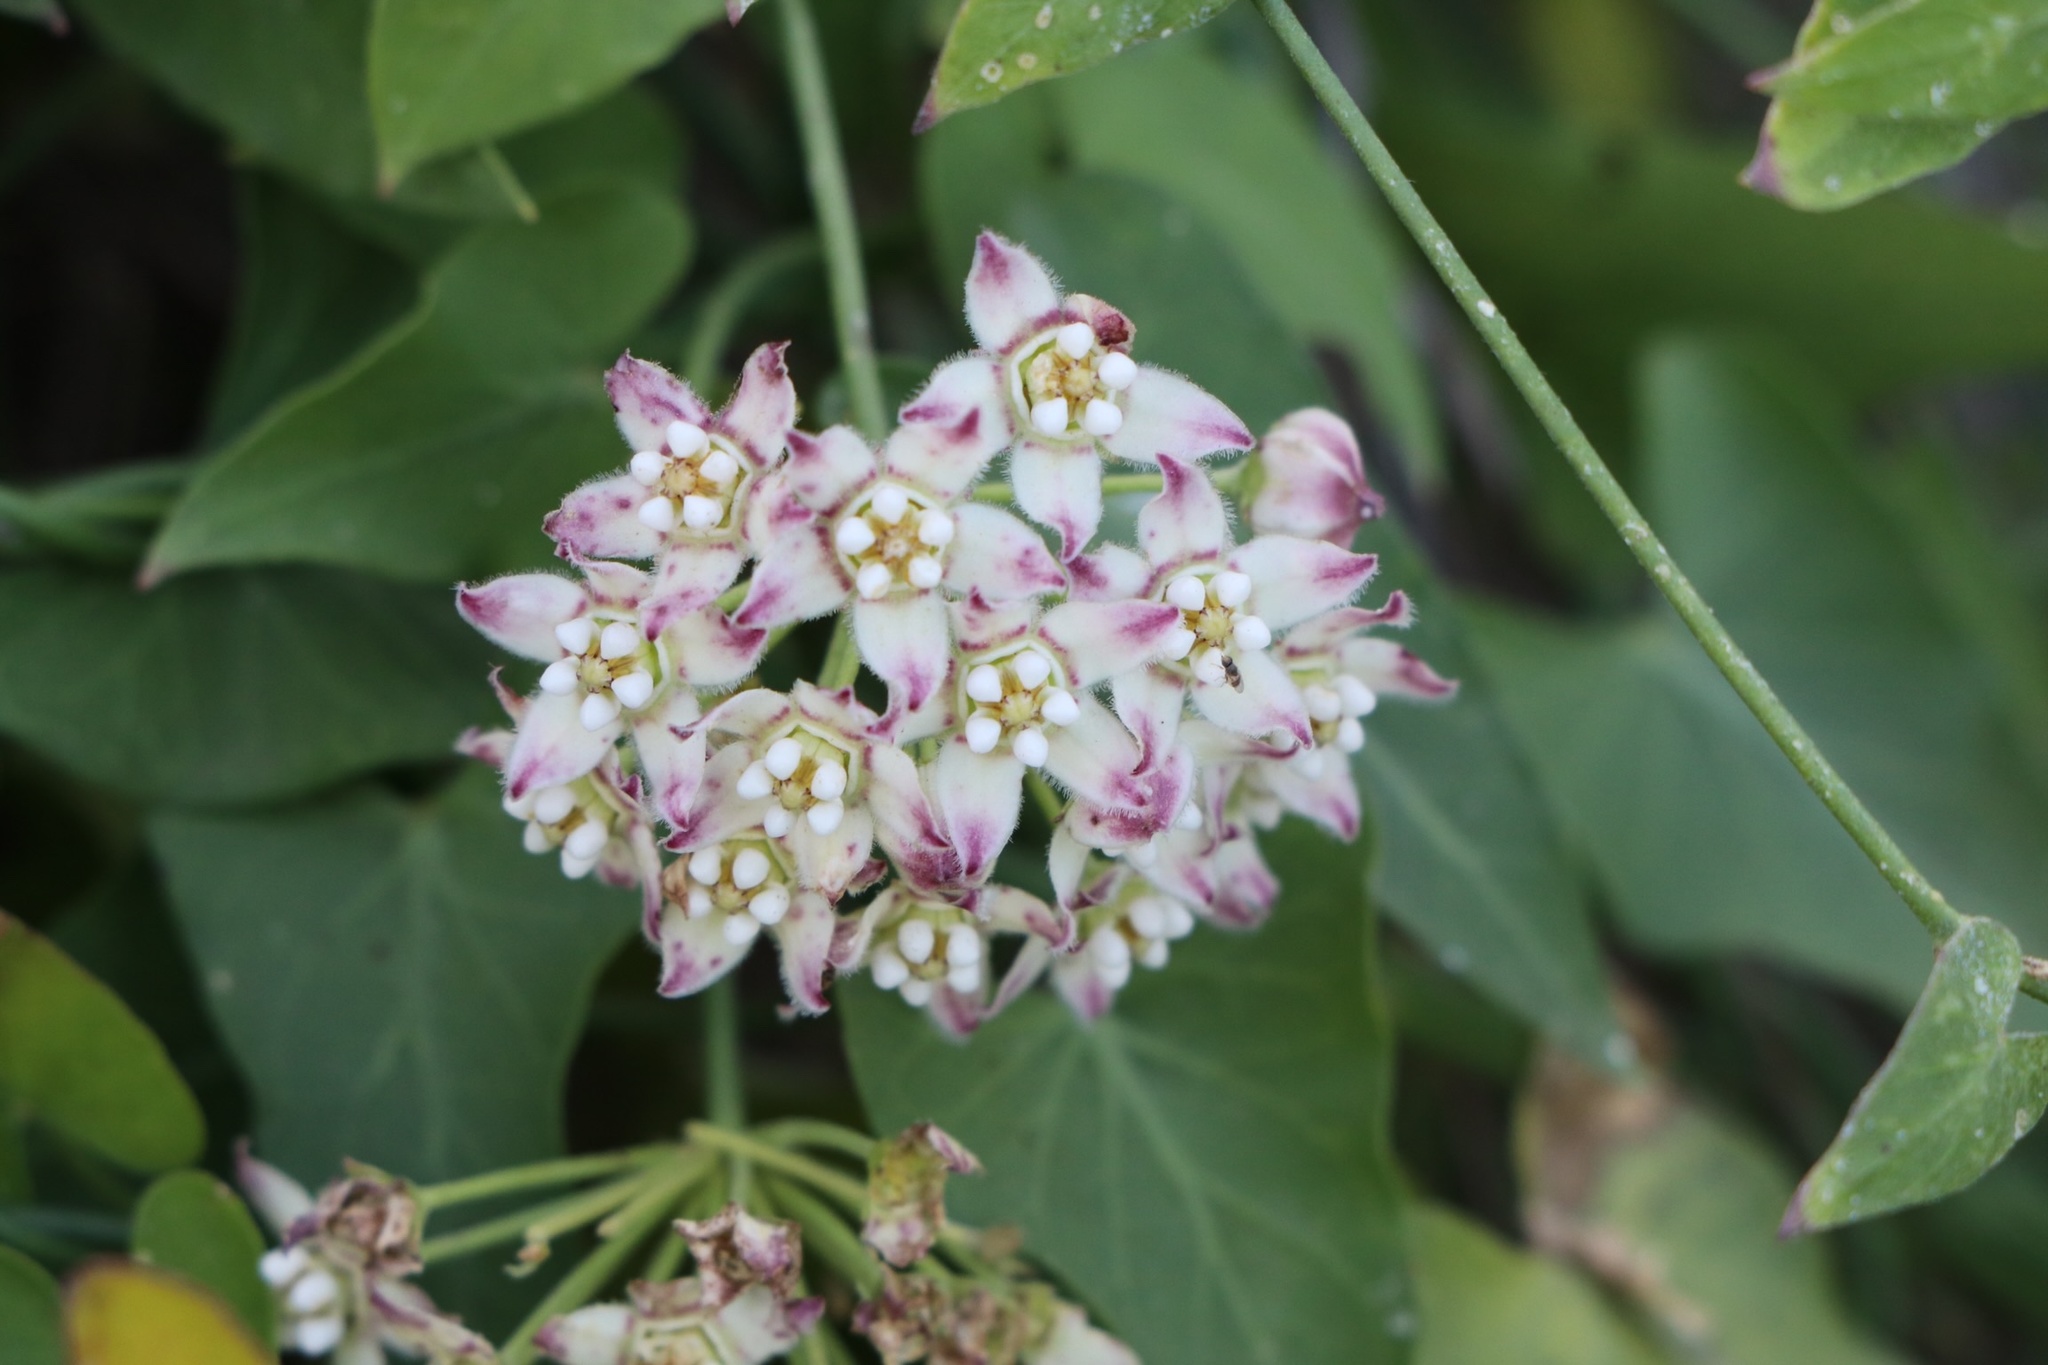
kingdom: Plantae
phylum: Tracheophyta
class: Magnoliopsida
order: Gentianales
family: Apocynaceae
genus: Funastrum
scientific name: Funastrum cynanchoides
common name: Climbing-milkweed
